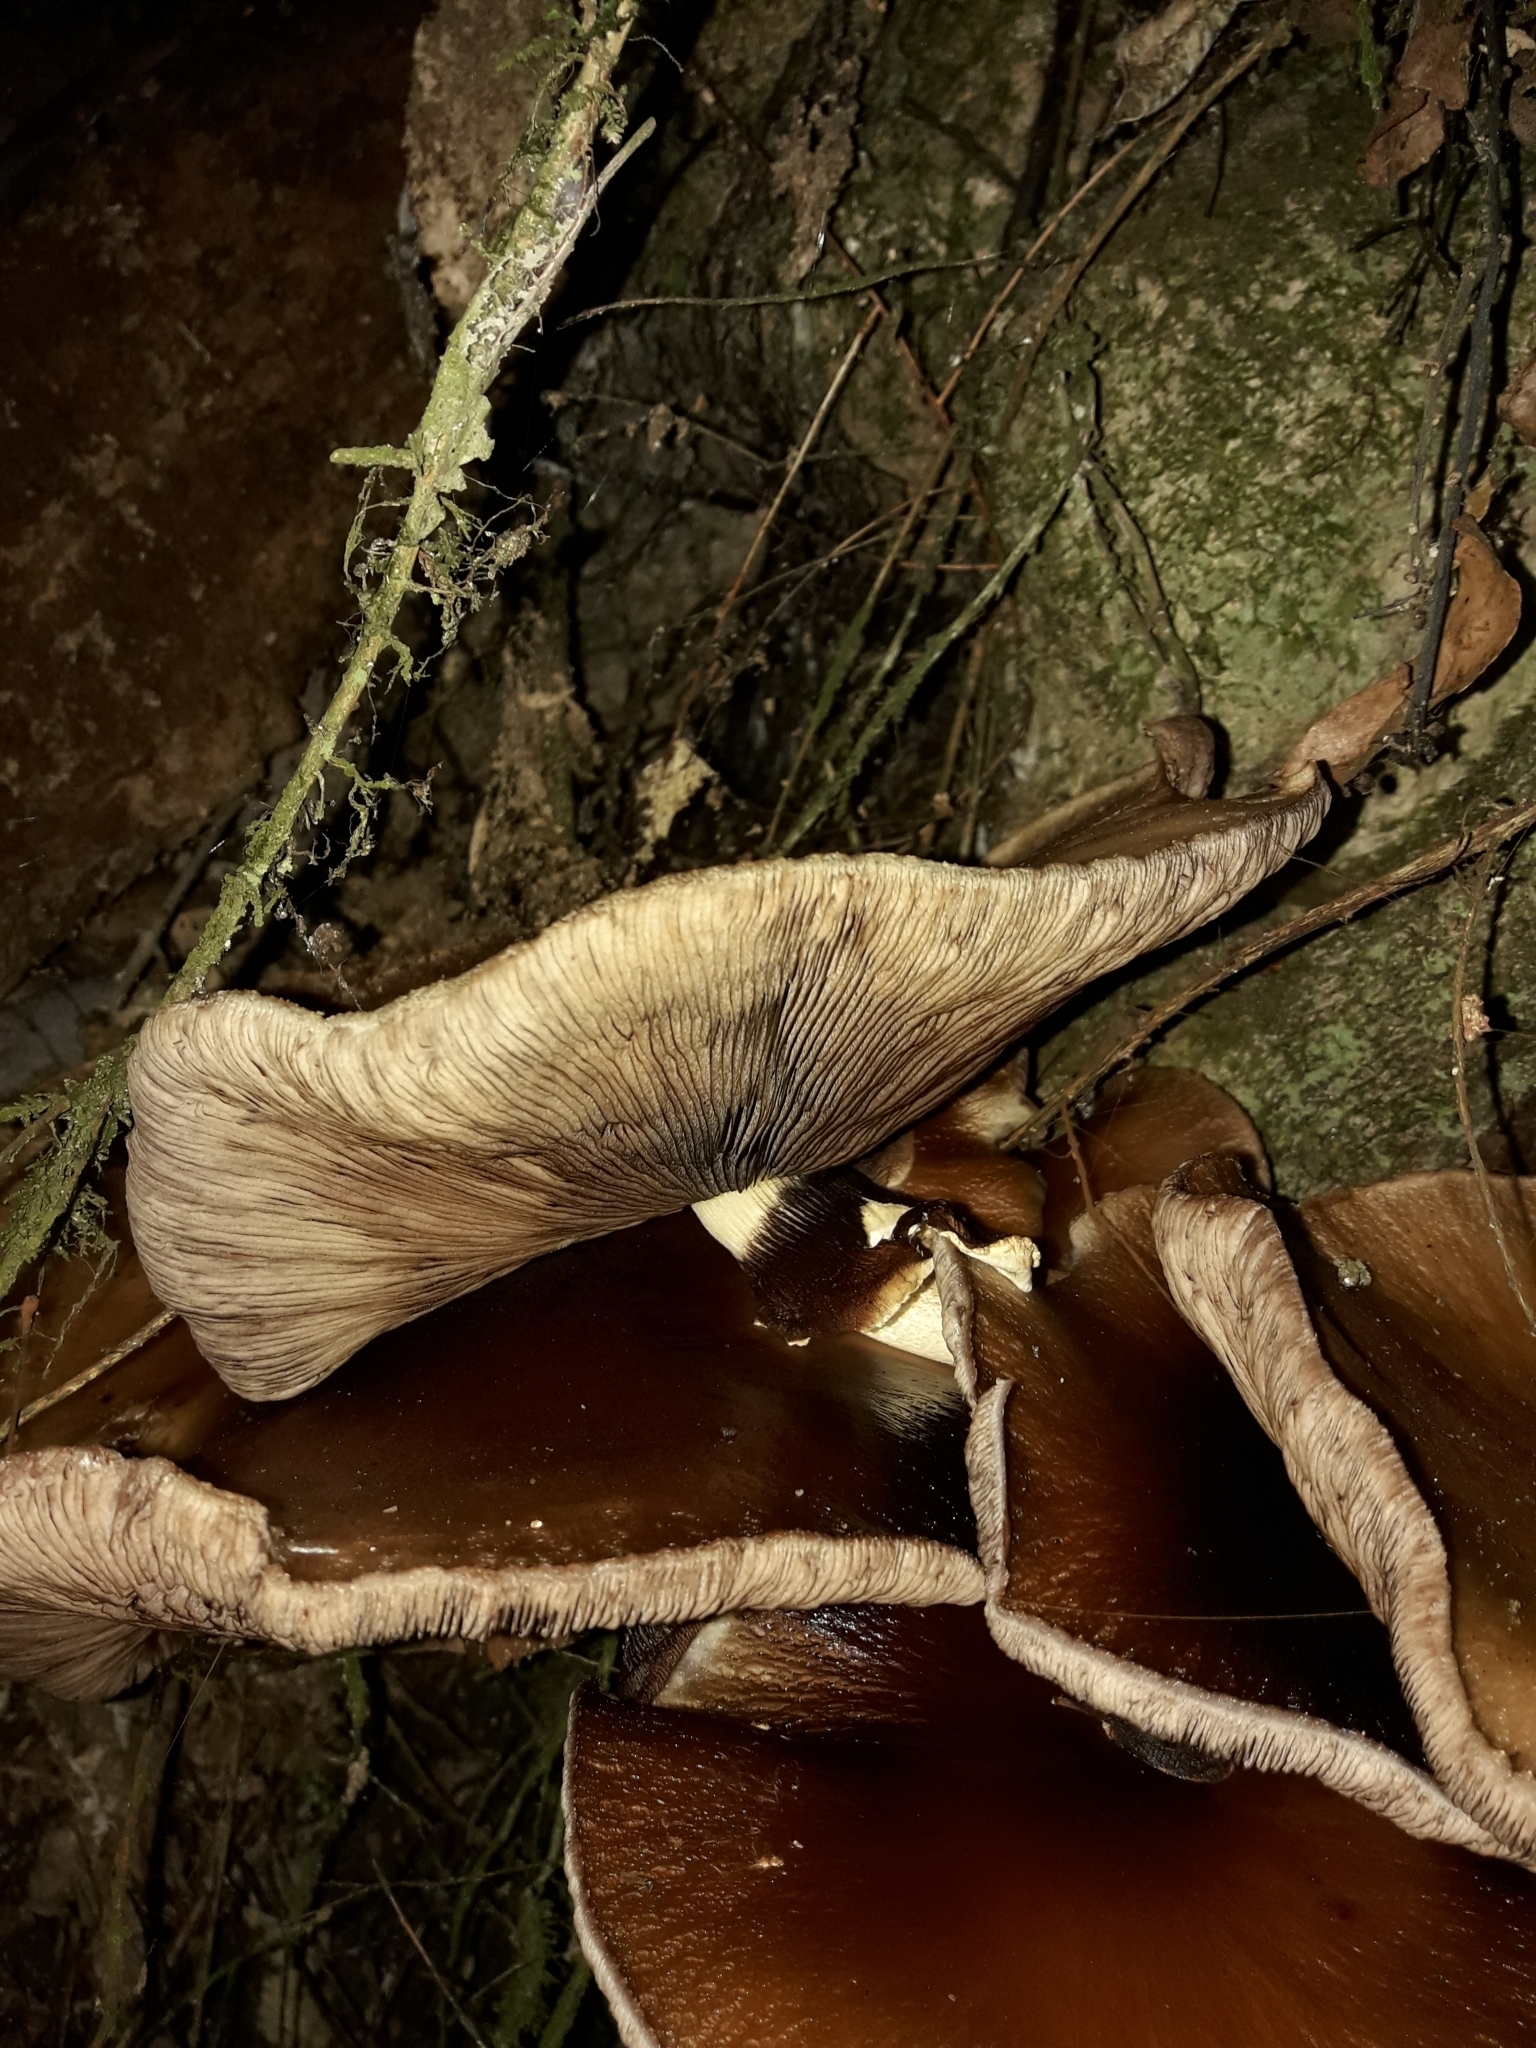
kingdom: Fungi
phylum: Basidiomycota
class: Agaricomycetes
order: Agaricales
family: Tubariaceae
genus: Cyclocybe
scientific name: Cyclocybe parasitica
